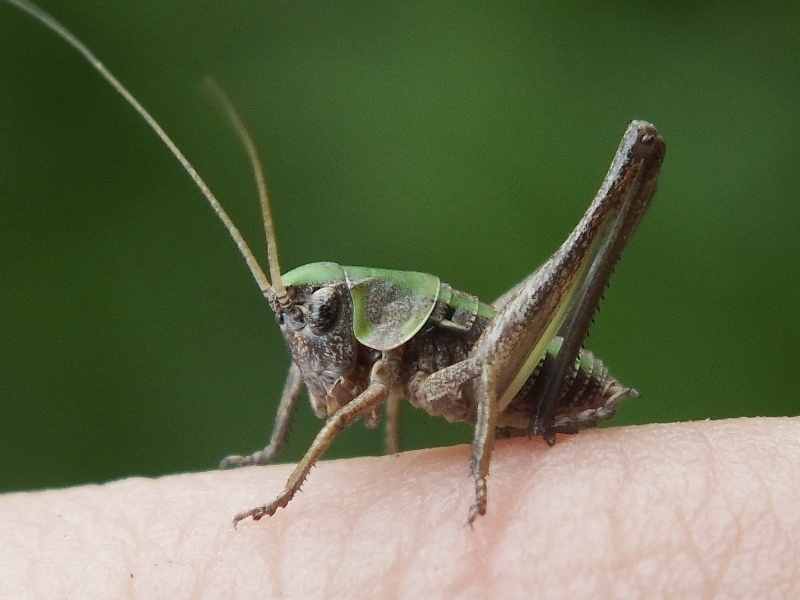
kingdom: Animalia
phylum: Arthropoda
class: Insecta
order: Orthoptera
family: Tettigoniidae
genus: Decticus
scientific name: Decticus verrucivorus
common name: Wart-biter
